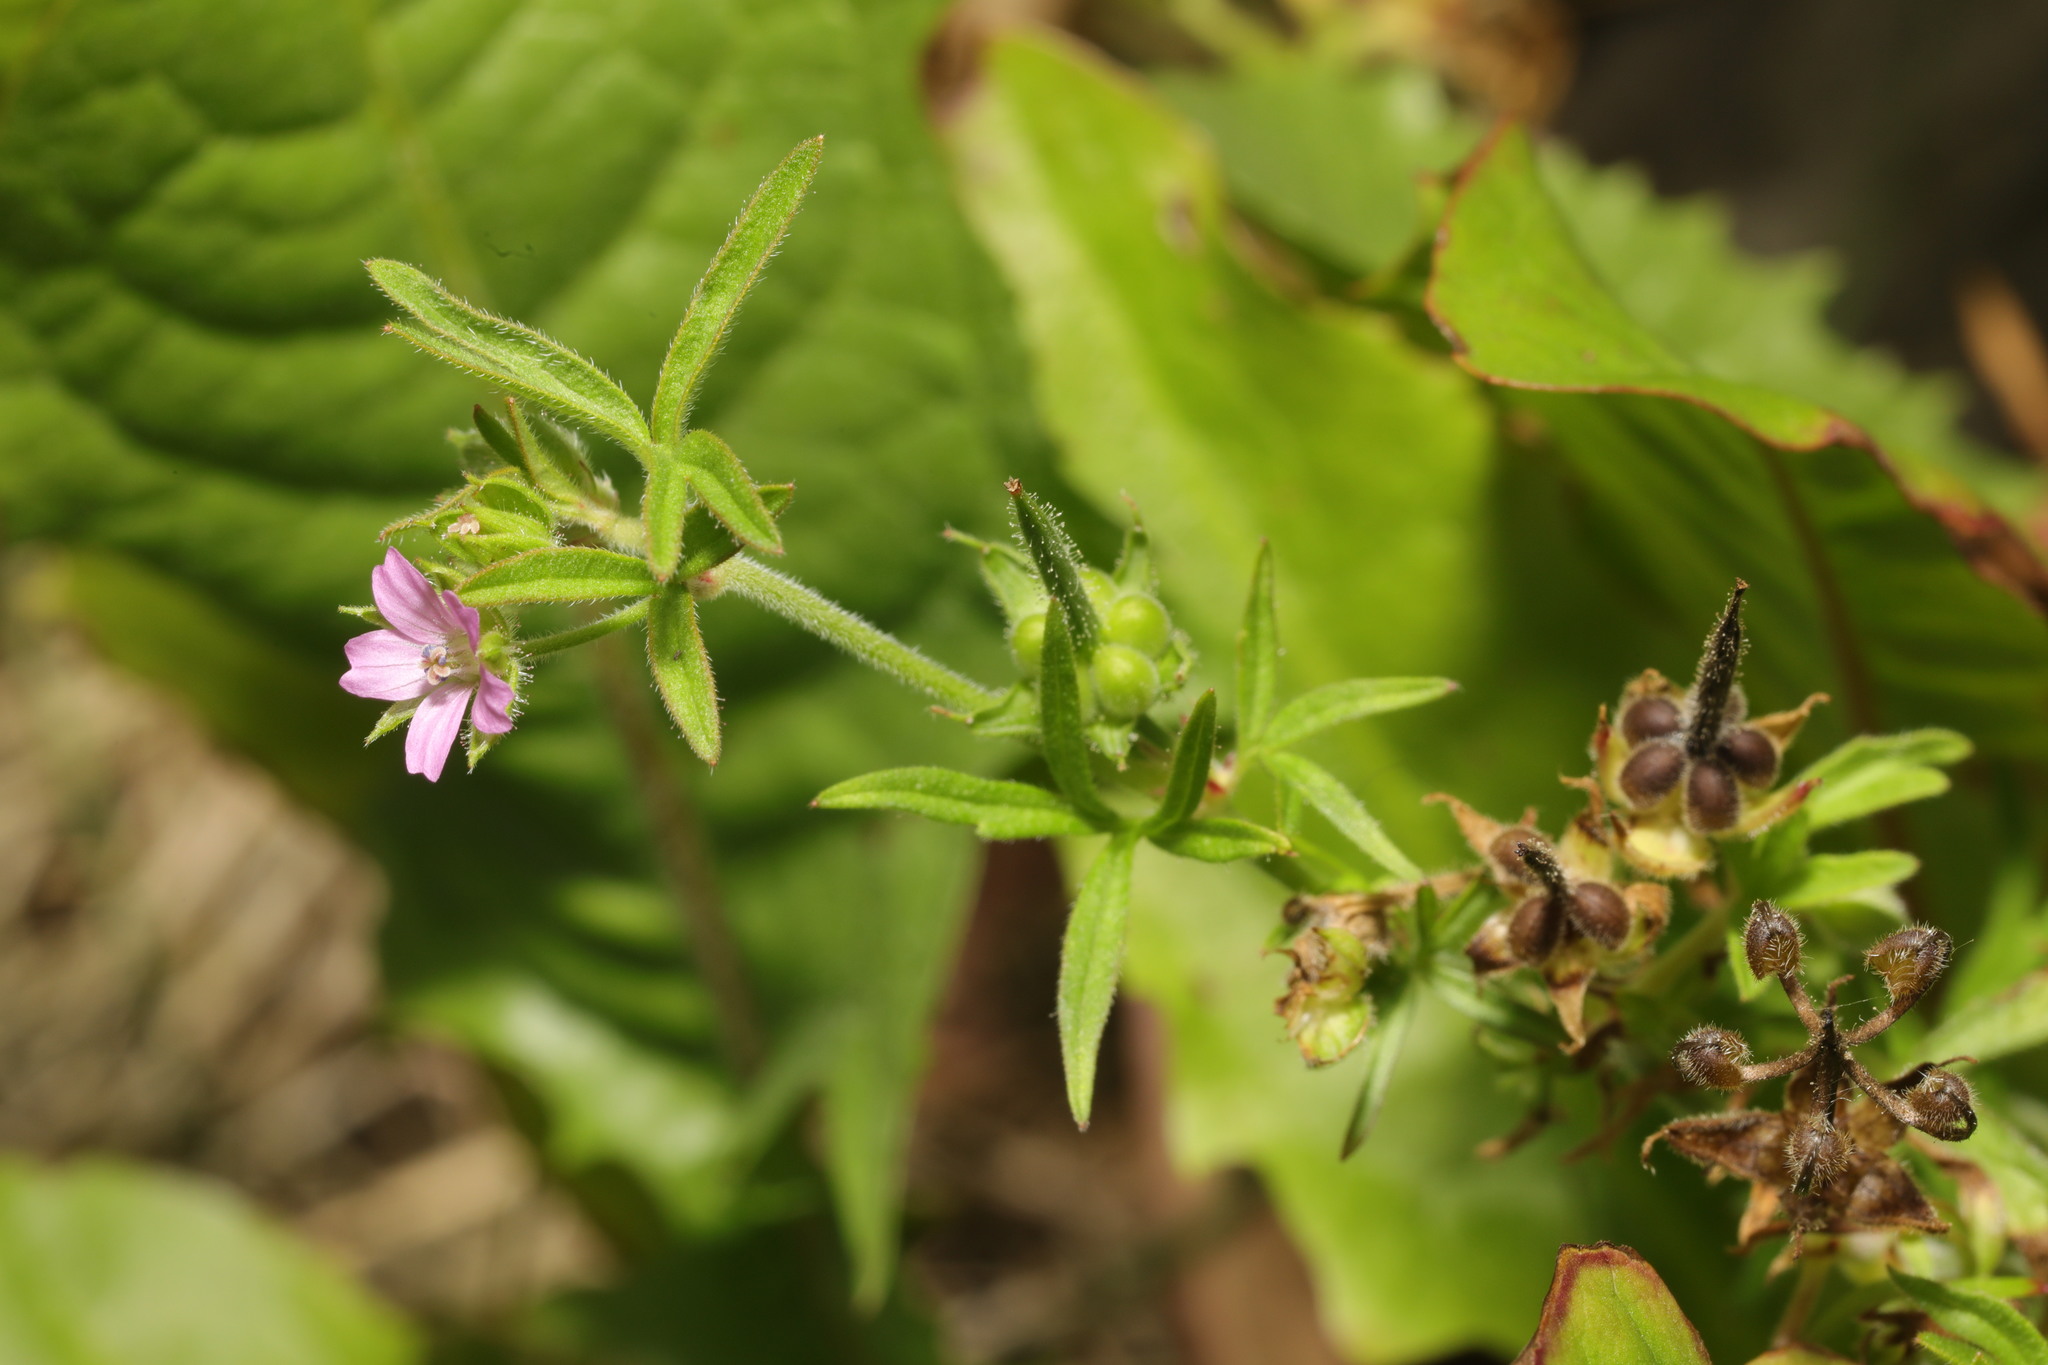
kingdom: Plantae
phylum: Tracheophyta
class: Magnoliopsida
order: Geraniales
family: Geraniaceae
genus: Geranium
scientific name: Geranium dissectum
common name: Cut-leaved crane's-bill
